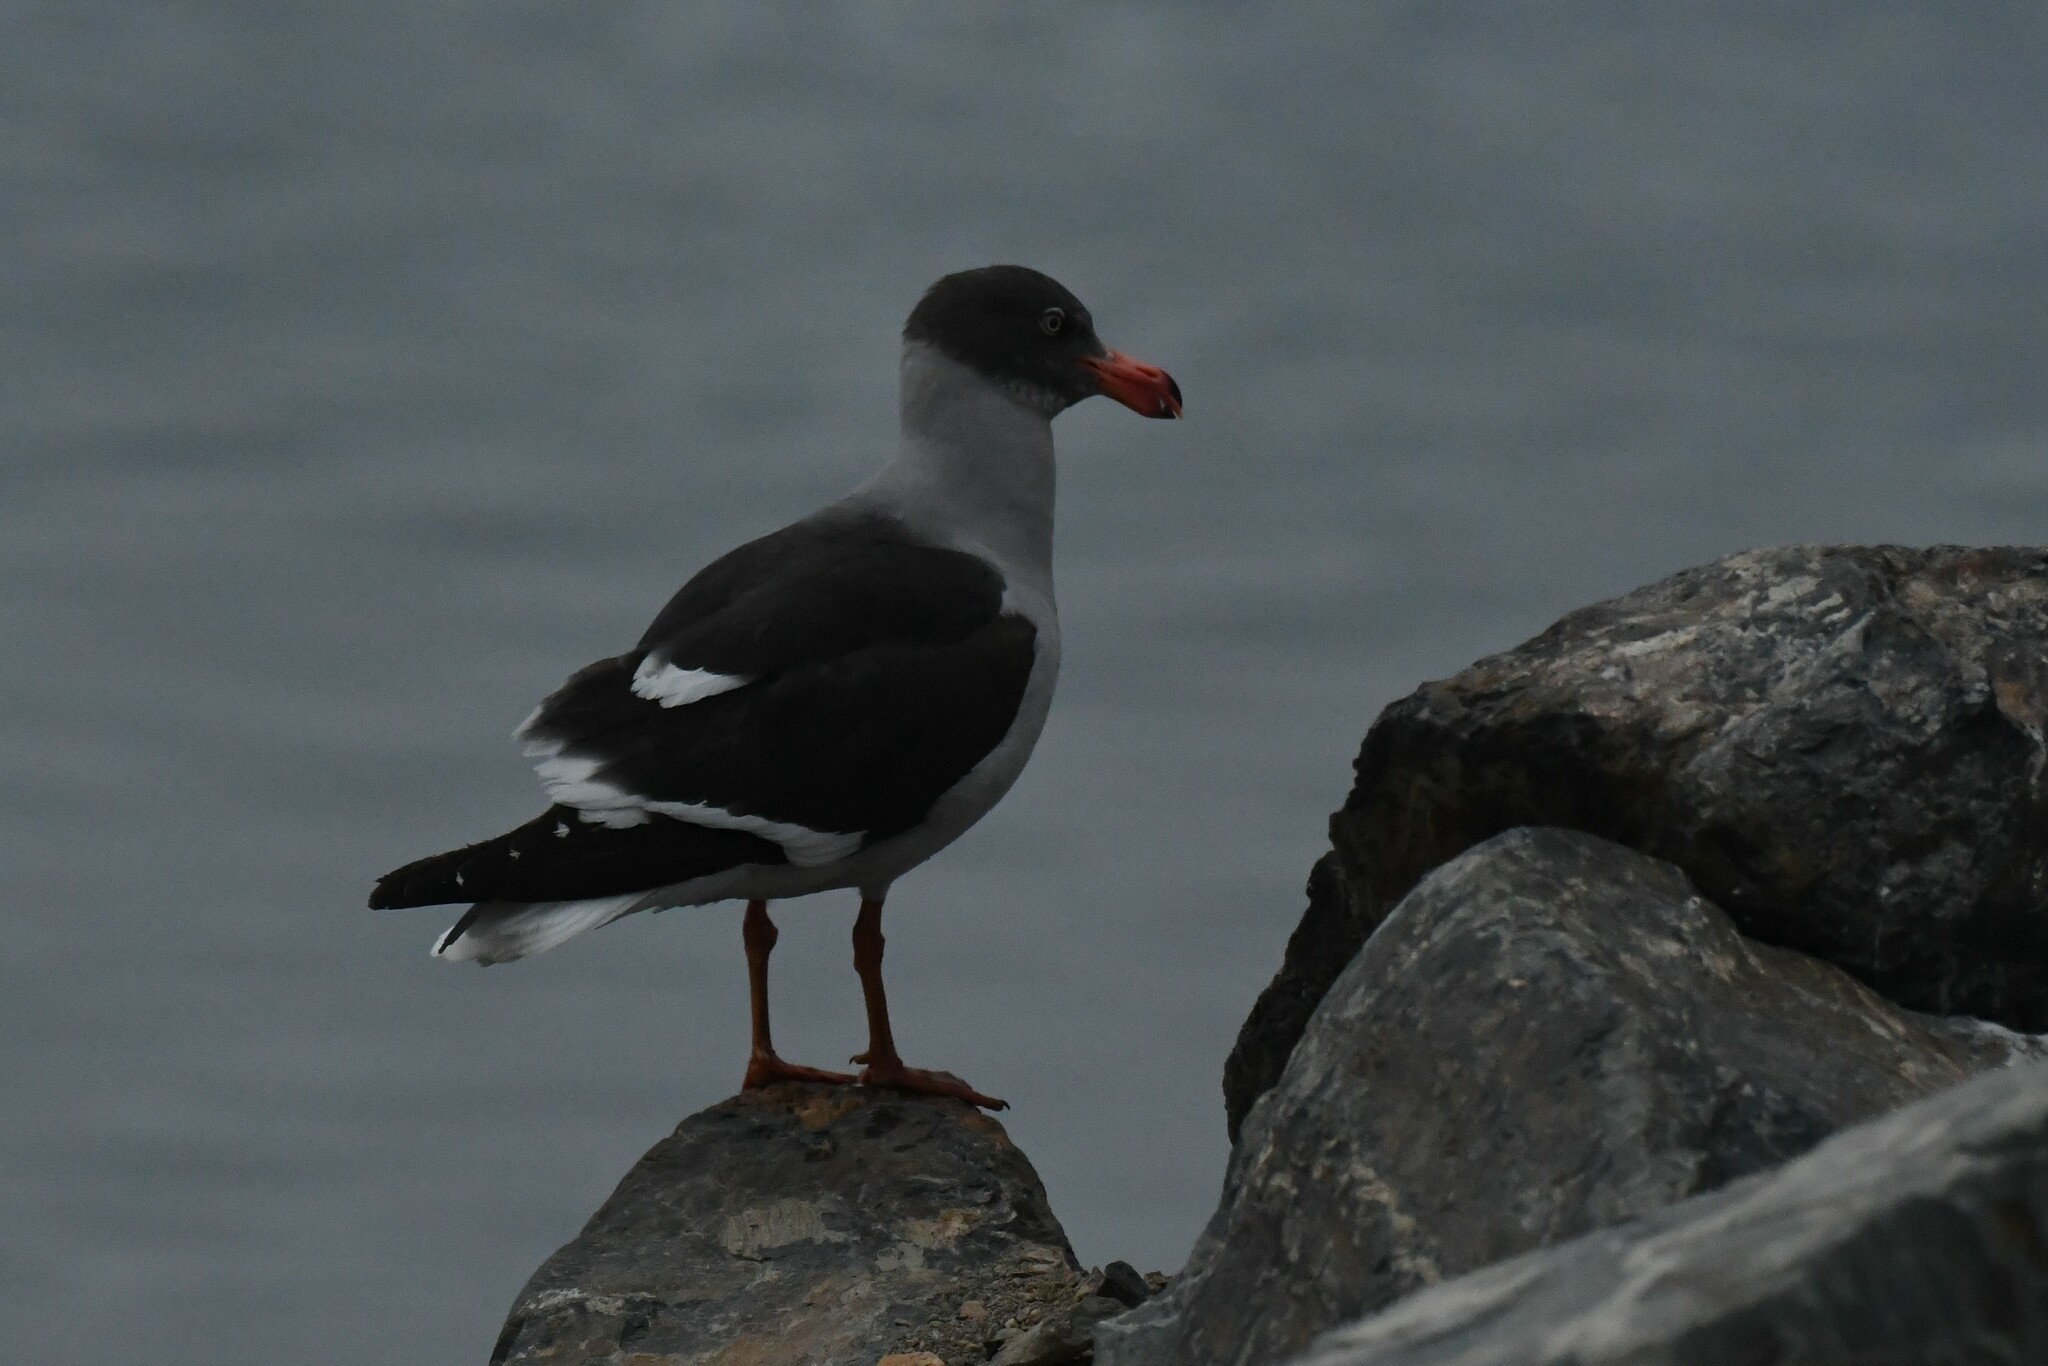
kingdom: Animalia
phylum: Chordata
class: Aves
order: Charadriiformes
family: Laridae
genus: Leucophaeus
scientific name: Leucophaeus scoresbii
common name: Dolphin gull
